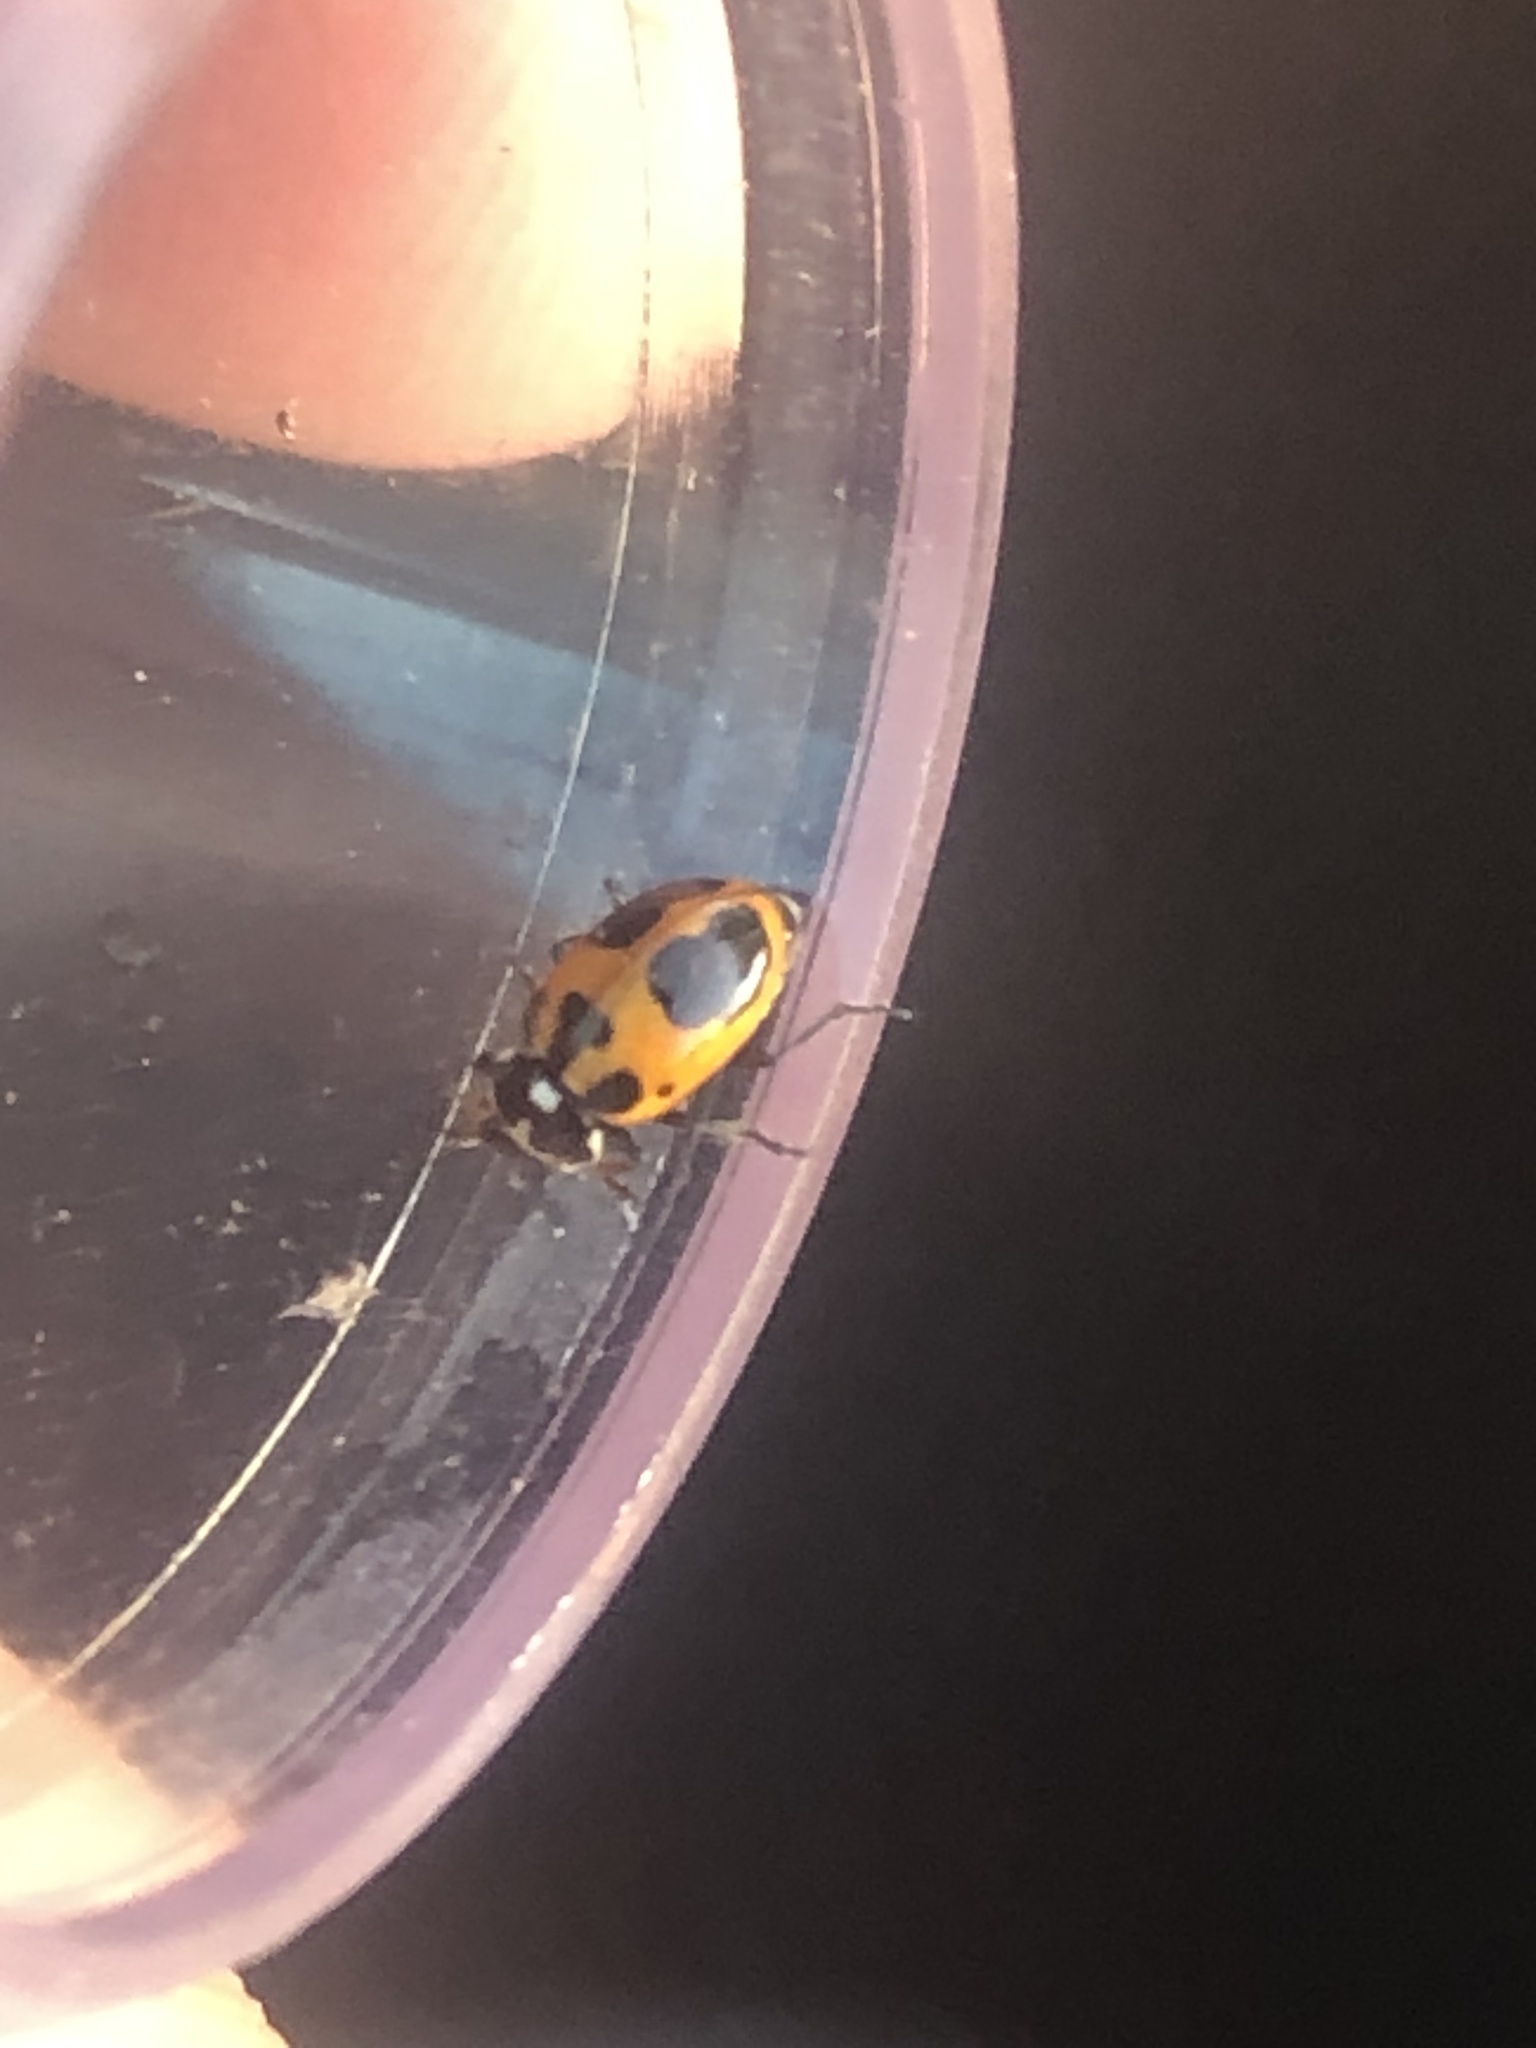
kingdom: Animalia
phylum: Arthropoda
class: Insecta
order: Coleoptera
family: Coccinellidae
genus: Hippodamia
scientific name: Hippodamia parenthesis
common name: Parenthesis lady beetle
